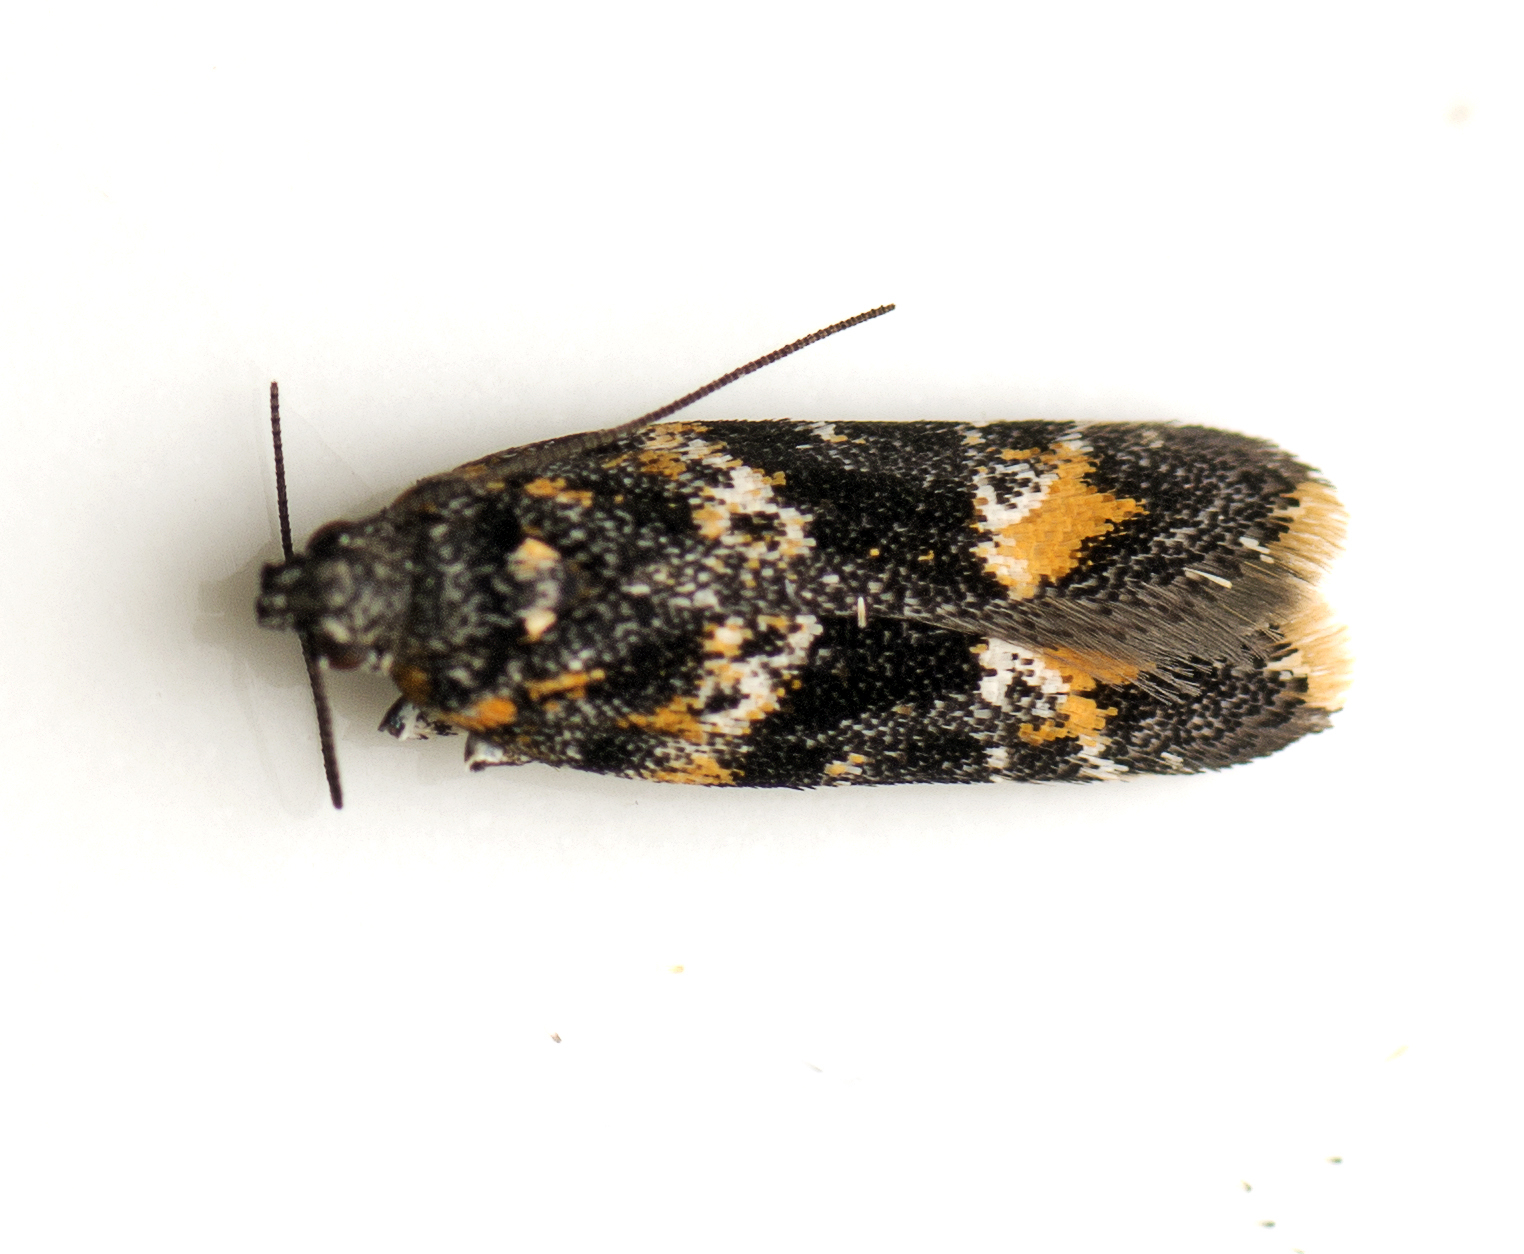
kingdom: Animalia
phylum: Arthropoda
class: Insecta
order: Lepidoptera
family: Gelechiidae
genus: Ardozyga
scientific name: Ardozyga odorifera
